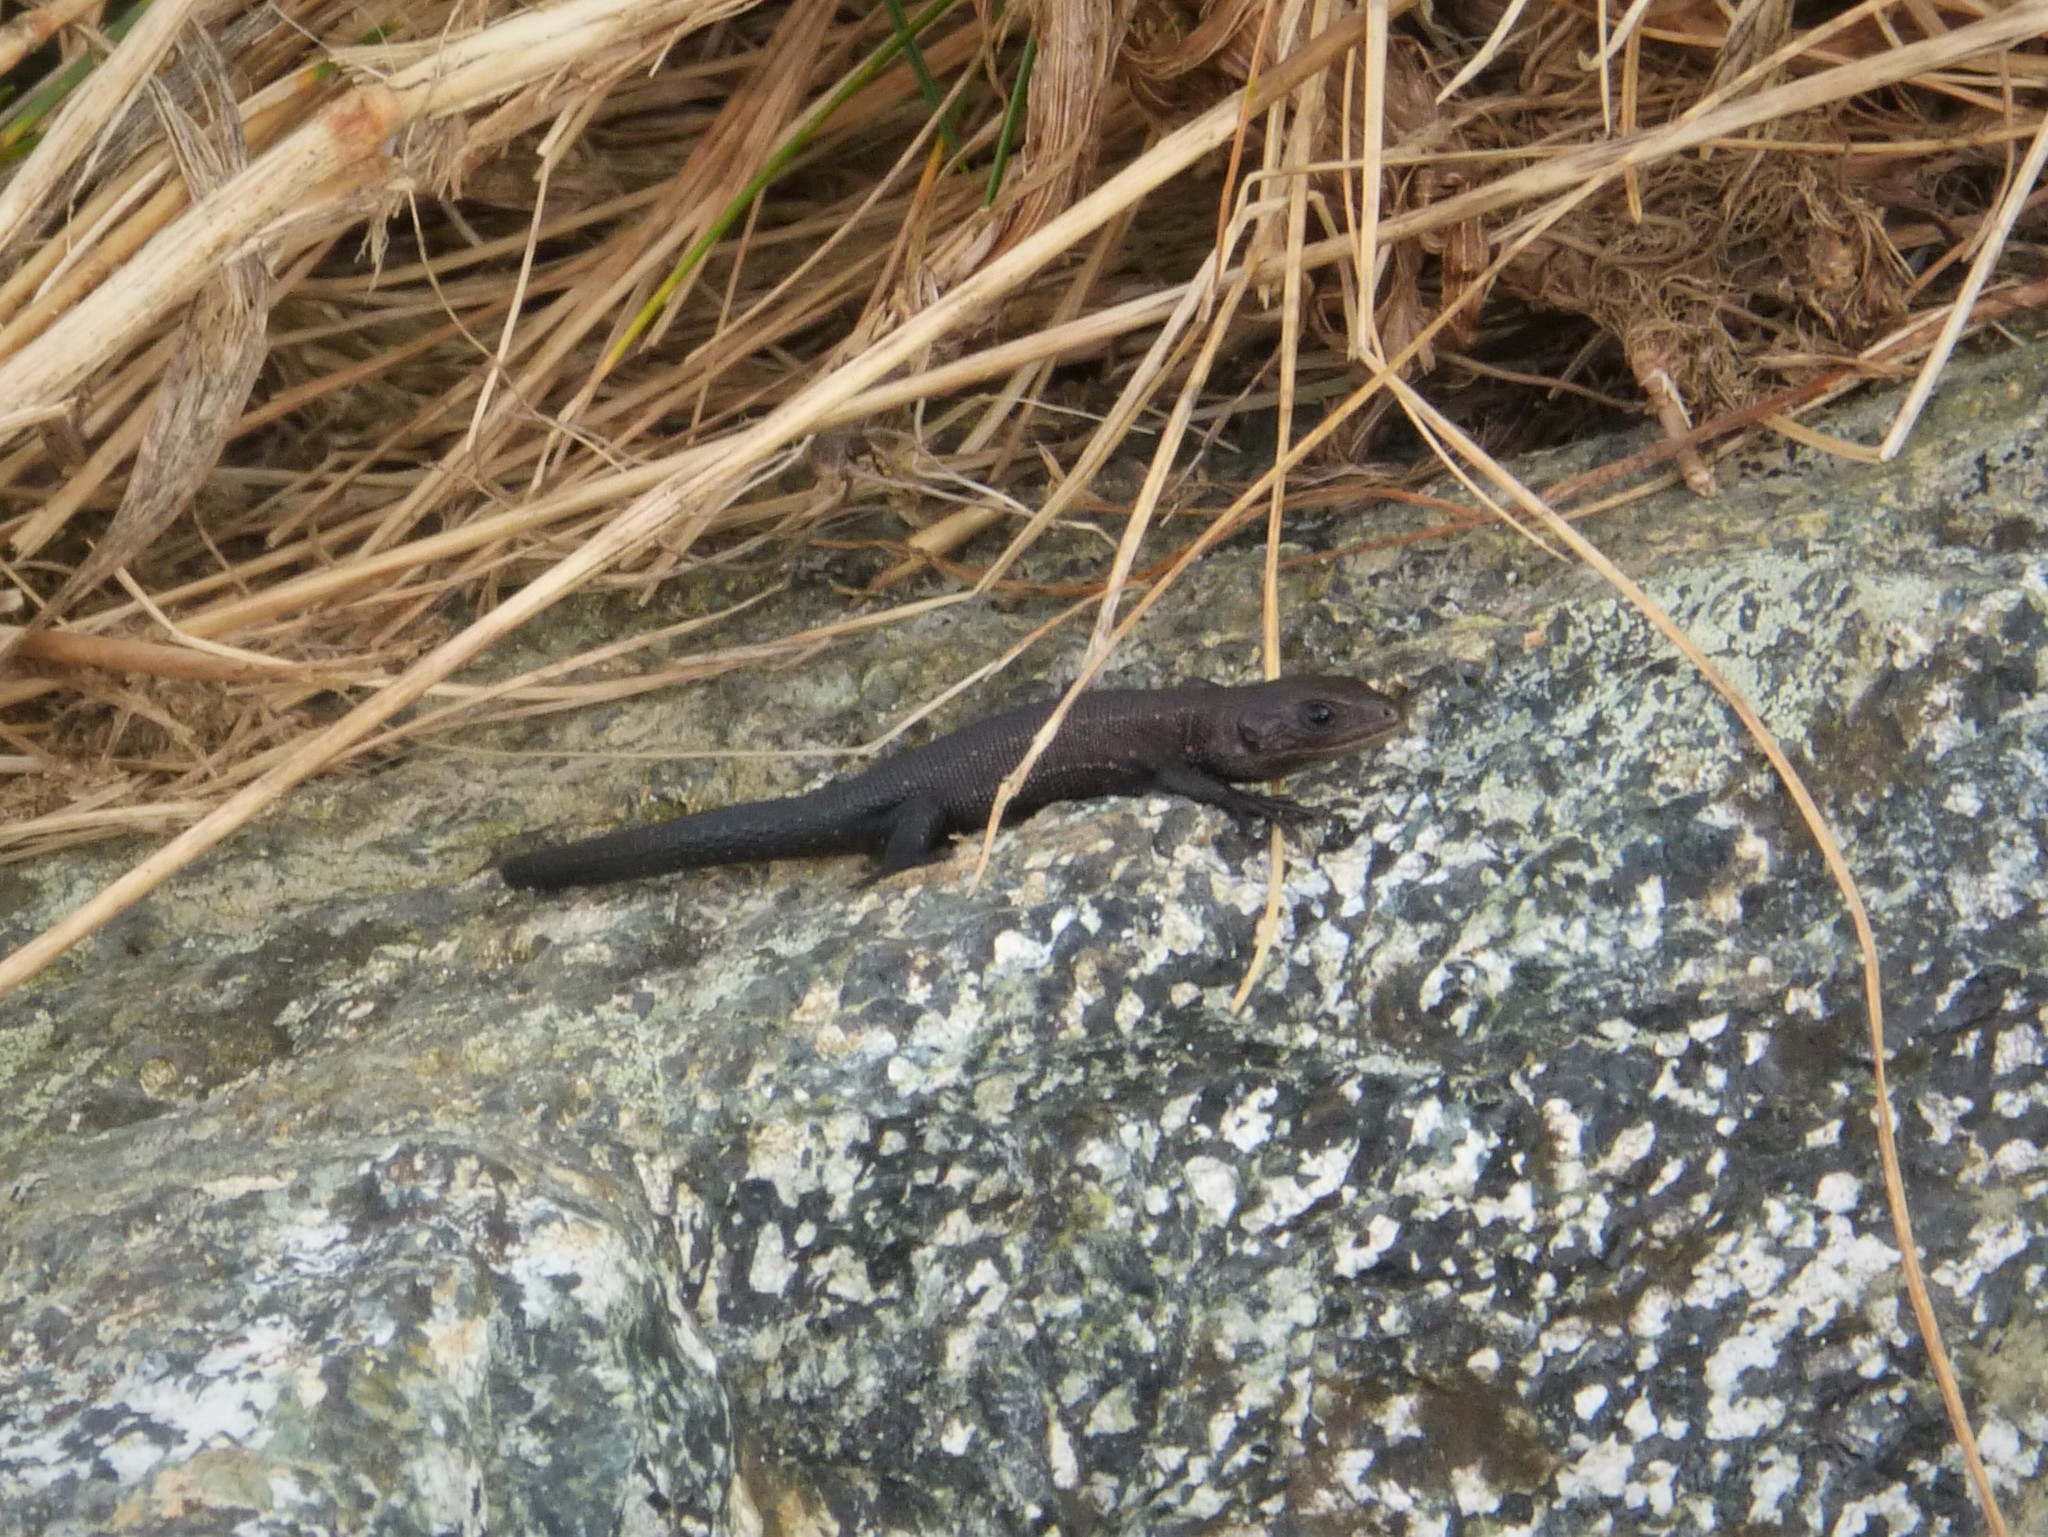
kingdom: Animalia
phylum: Chordata
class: Squamata
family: Lacertidae
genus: Zootoca
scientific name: Zootoca
